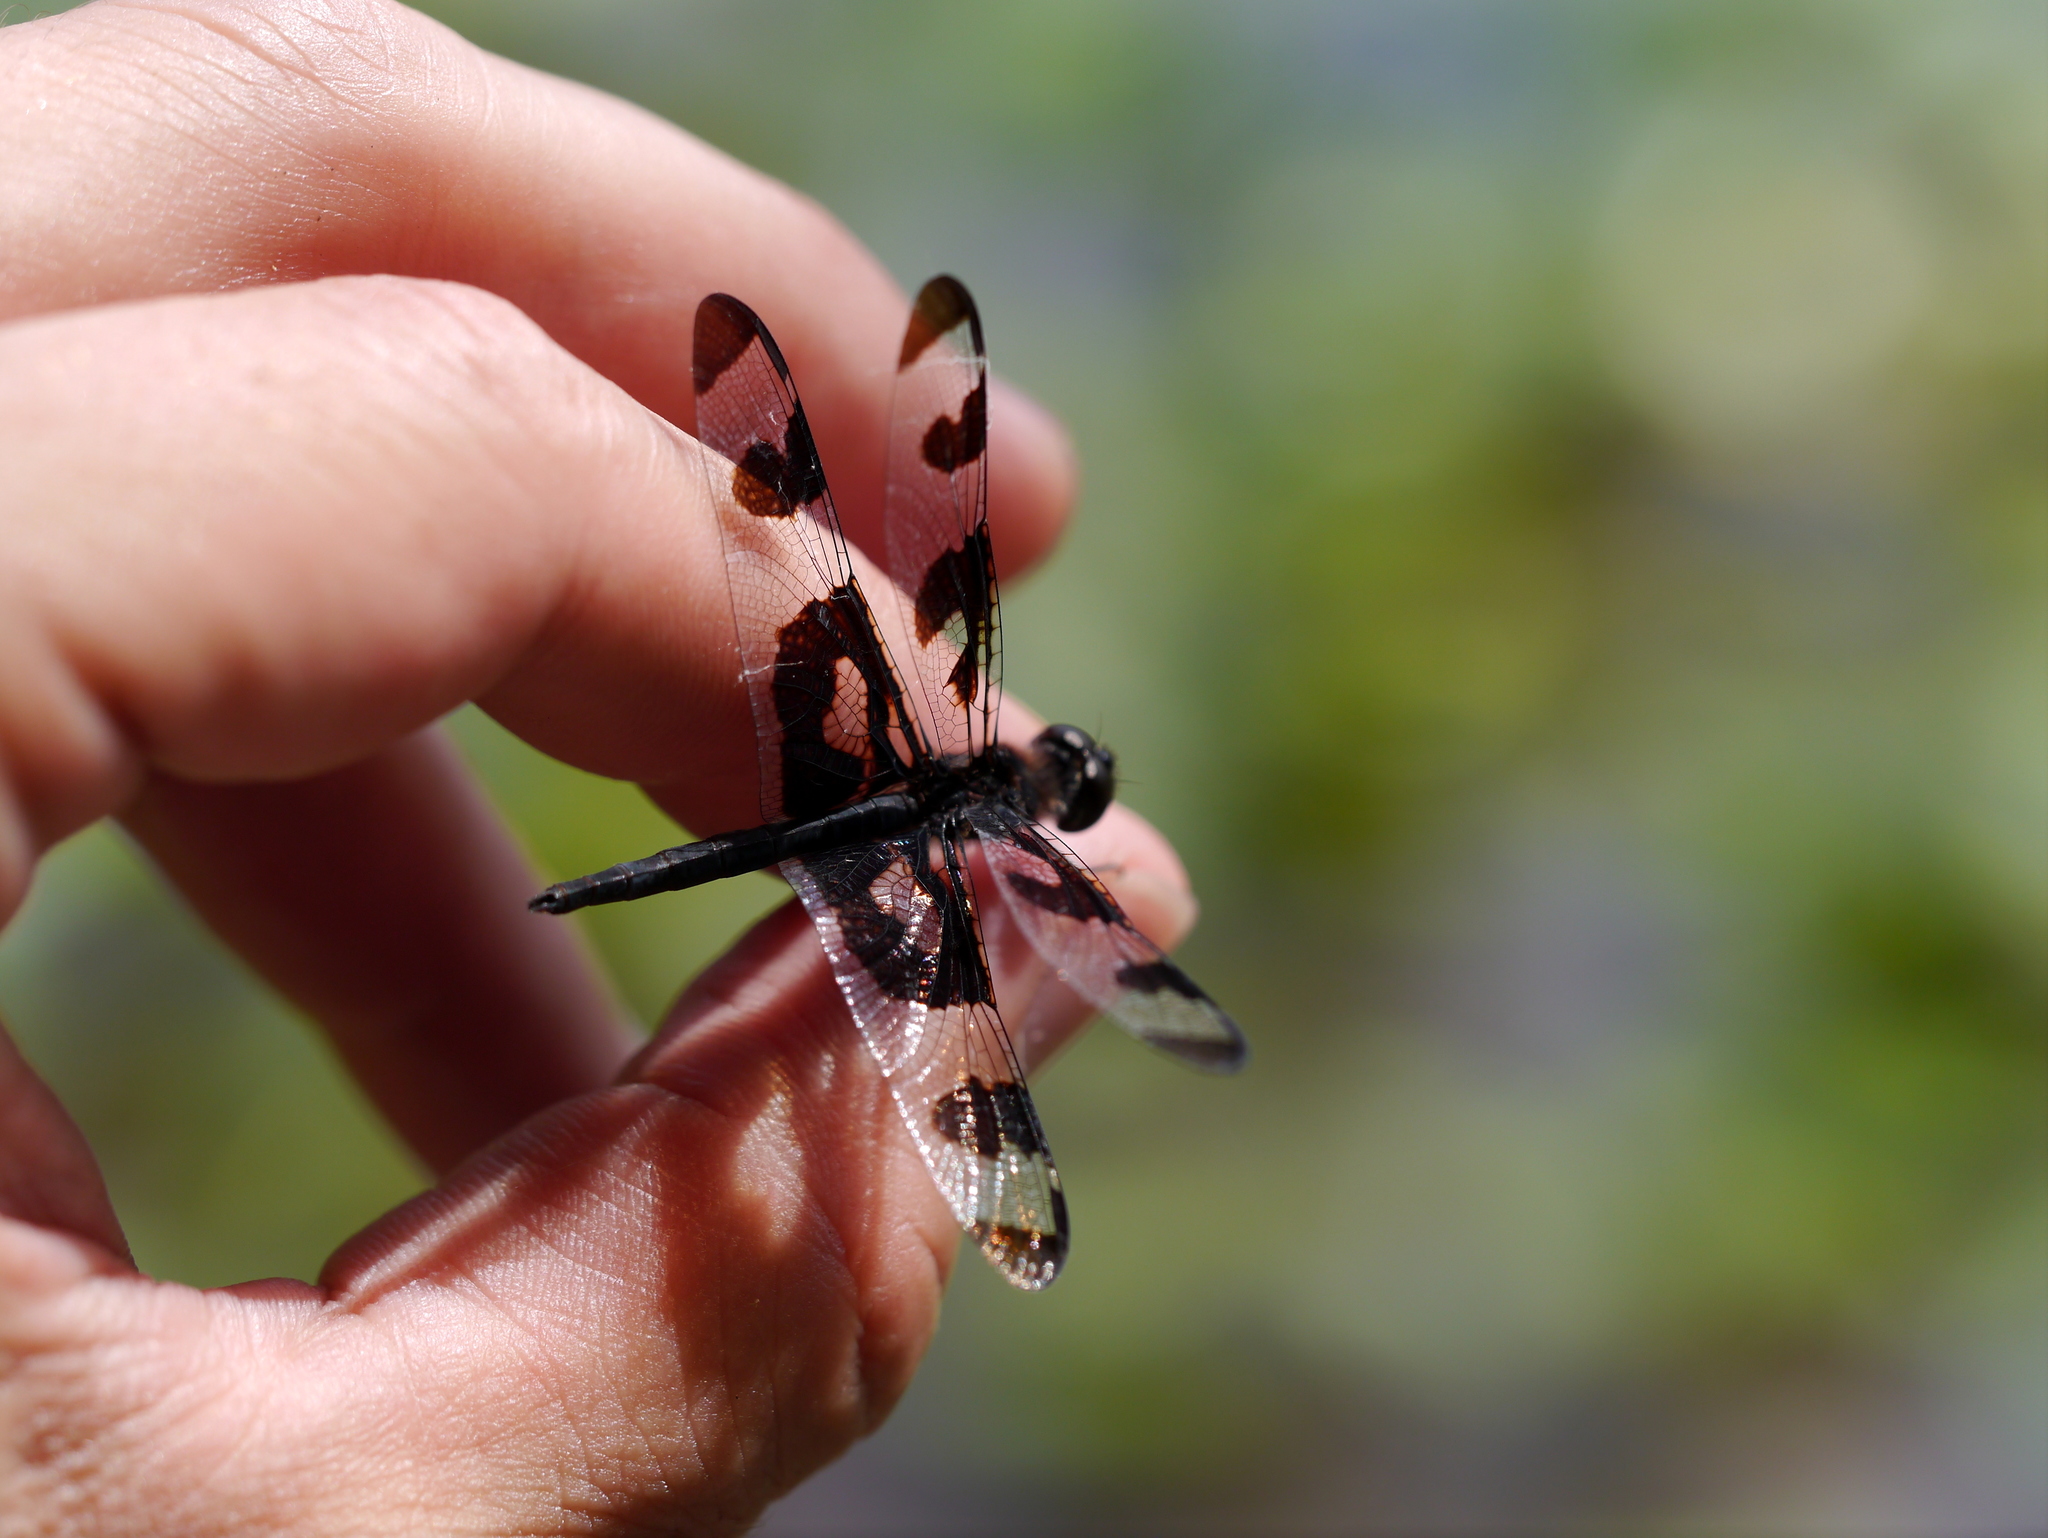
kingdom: Animalia
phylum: Arthropoda
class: Insecta
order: Odonata
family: Libellulidae
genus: Celithemis
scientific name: Celithemis fasciata
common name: Banded pennant
